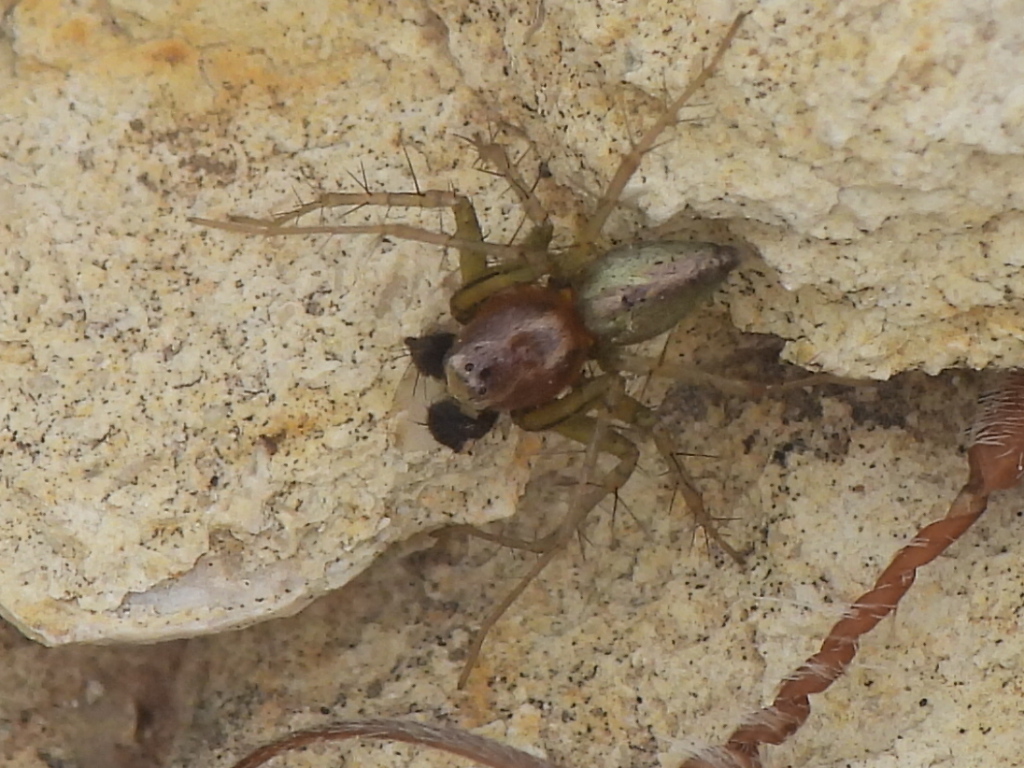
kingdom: Animalia
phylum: Arthropoda
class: Arachnida
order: Araneae
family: Oxyopidae
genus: Oxyopes
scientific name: Oxyopes salticus
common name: Lynx spiders
